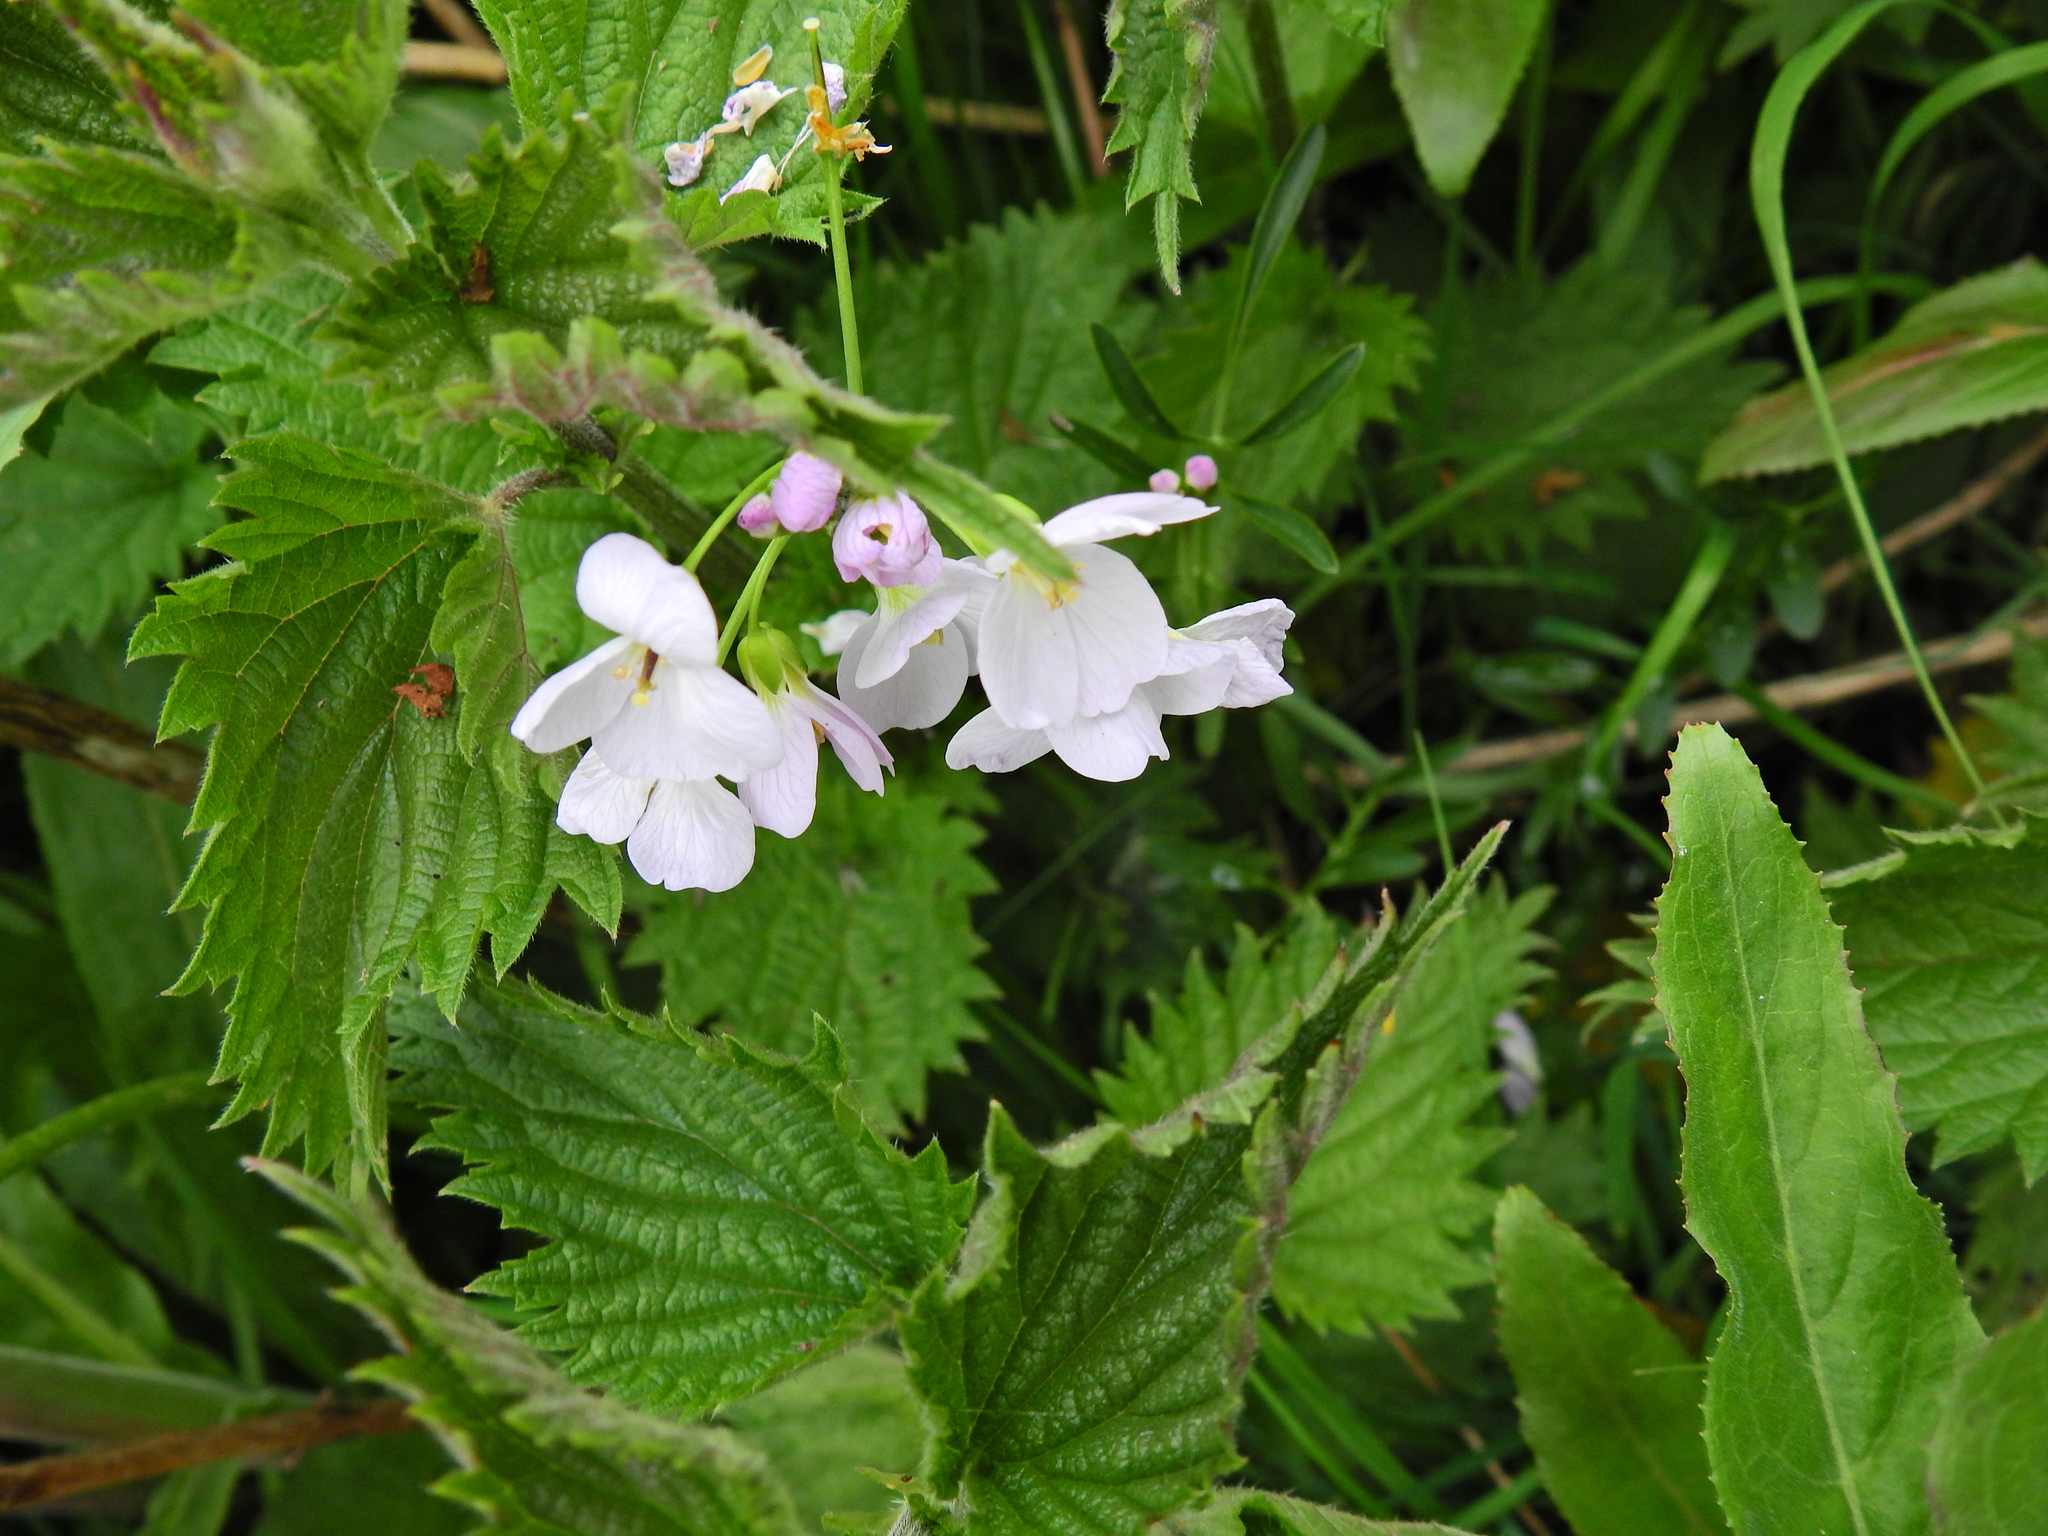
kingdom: Plantae
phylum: Tracheophyta
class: Magnoliopsida
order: Brassicales
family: Brassicaceae
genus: Cardamine
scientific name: Cardamine pratensis
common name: Cuckoo flower
